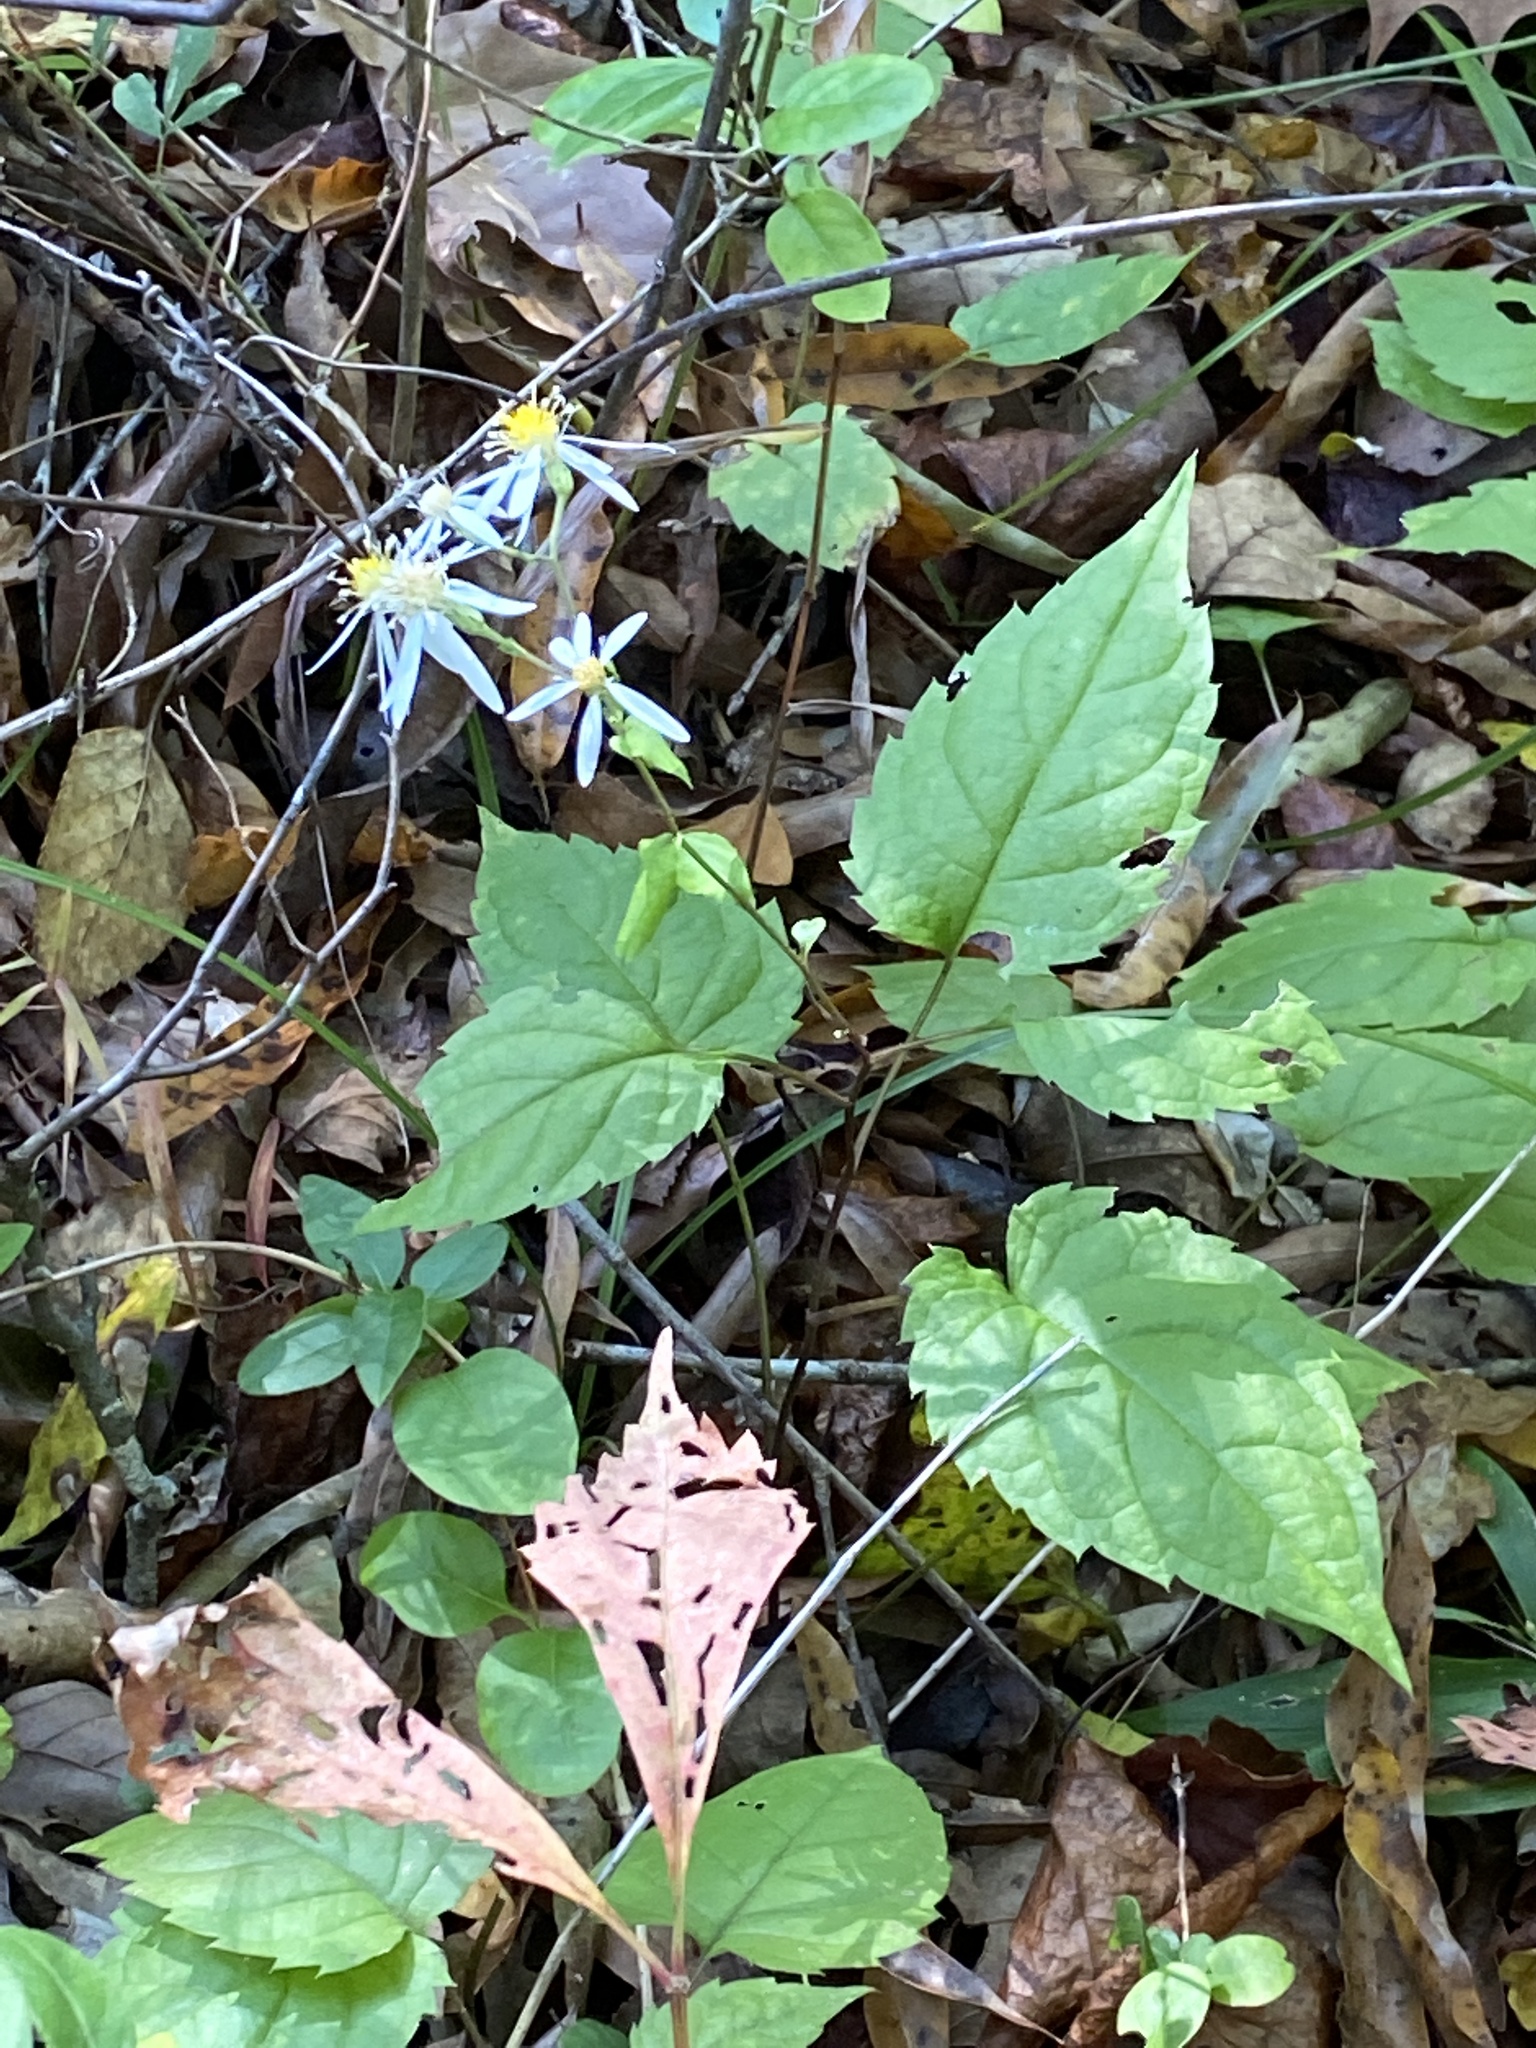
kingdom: Plantae
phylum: Tracheophyta
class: Magnoliopsida
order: Asterales
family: Asteraceae
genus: Eurybia
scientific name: Eurybia divaricata
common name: White wood aster
